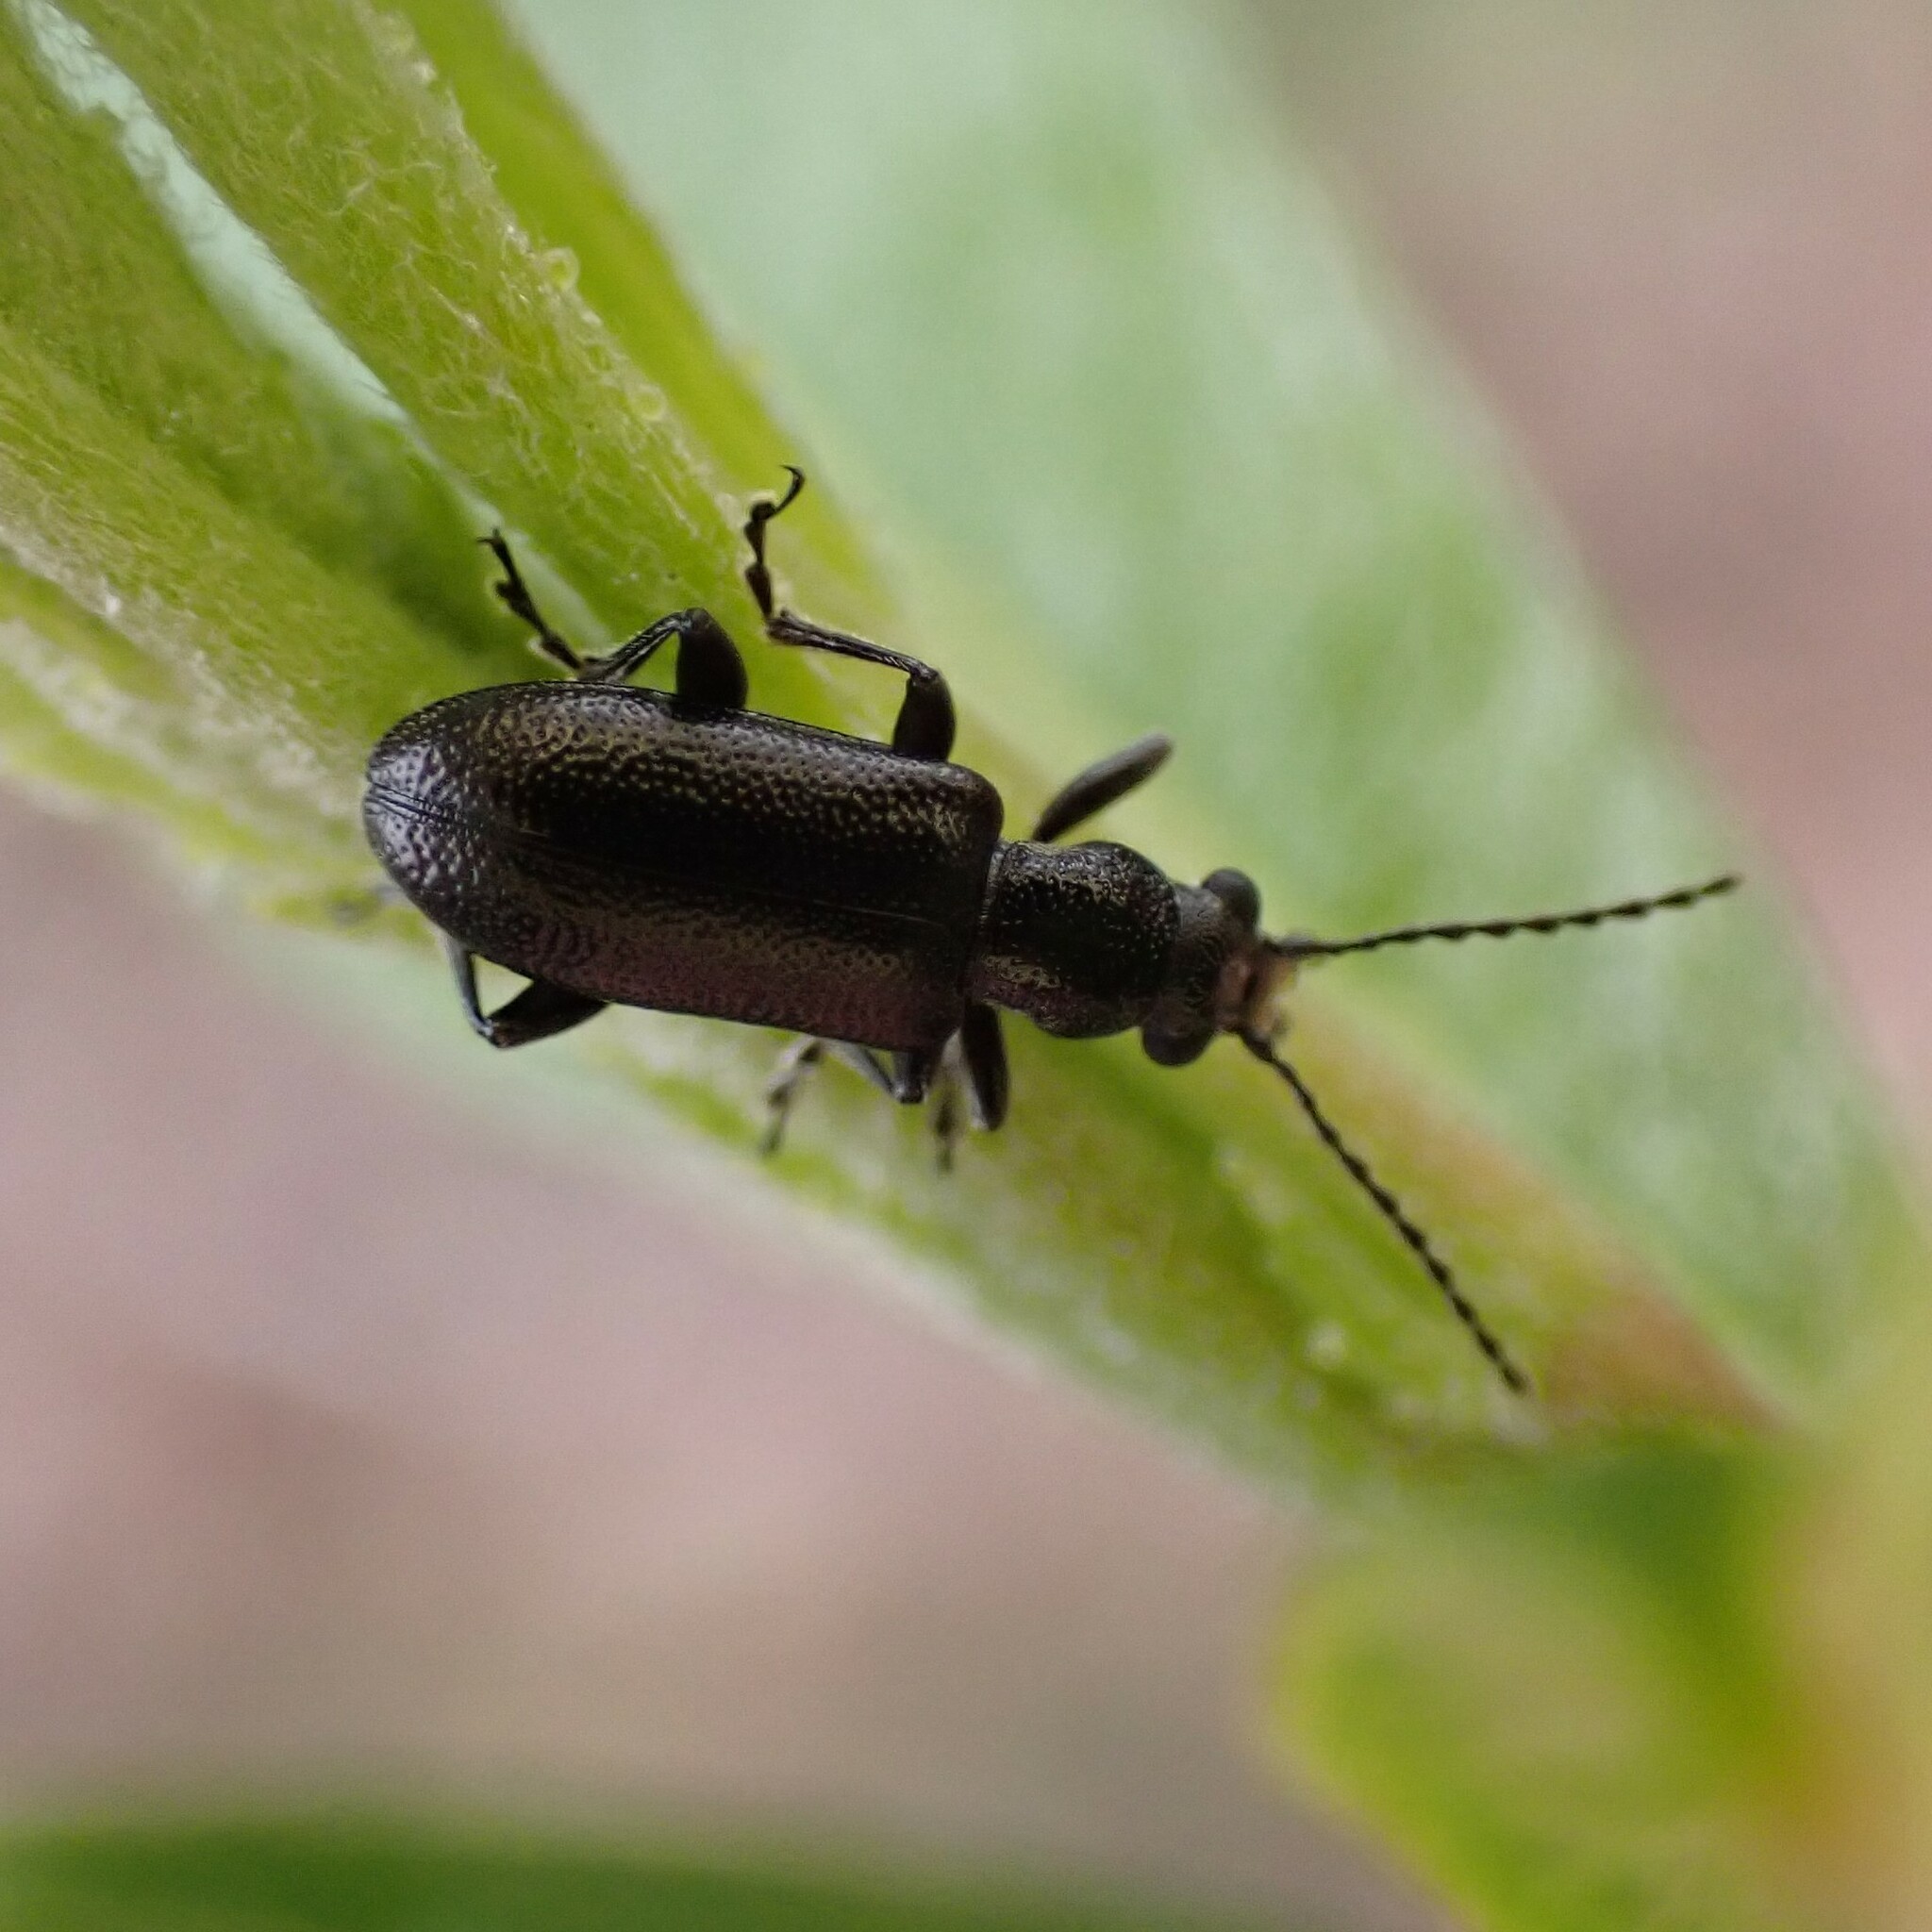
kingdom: Animalia
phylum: Arthropoda
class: Insecta
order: Coleoptera
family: Orsodacnidae
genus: Orsodacne
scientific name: Orsodacne atra
